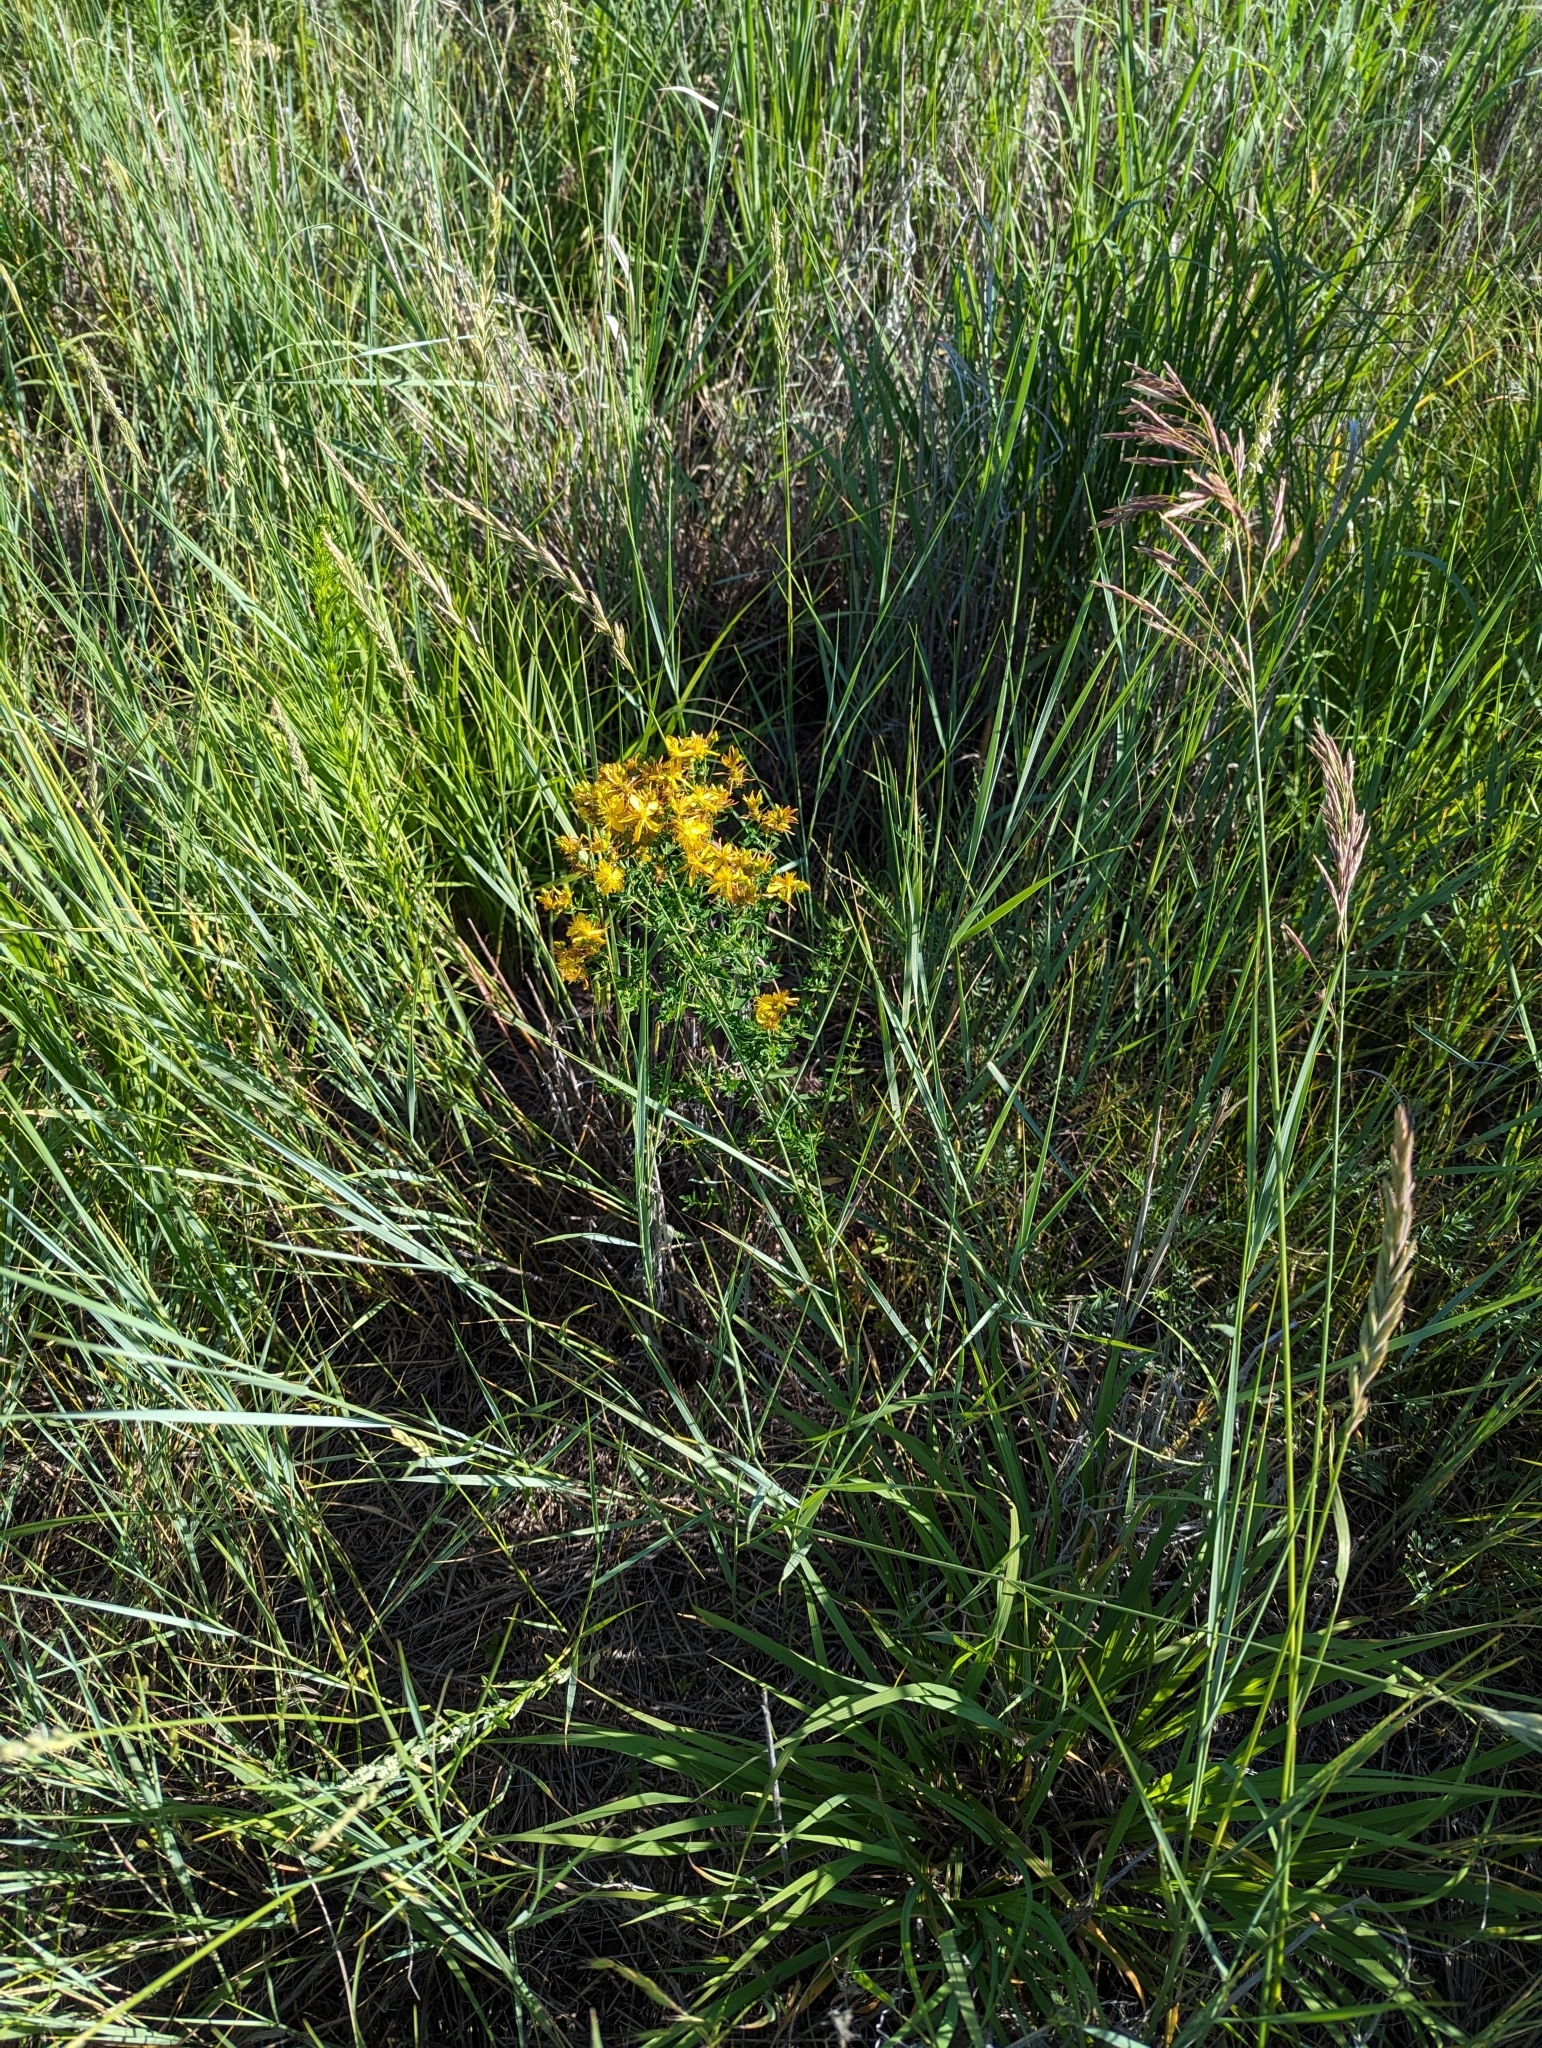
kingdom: Plantae
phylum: Tracheophyta
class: Magnoliopsida
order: Malpighiales
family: Hypericaceae
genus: Hypericum
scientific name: Hypericum perforatum
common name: Common st. johnswort
